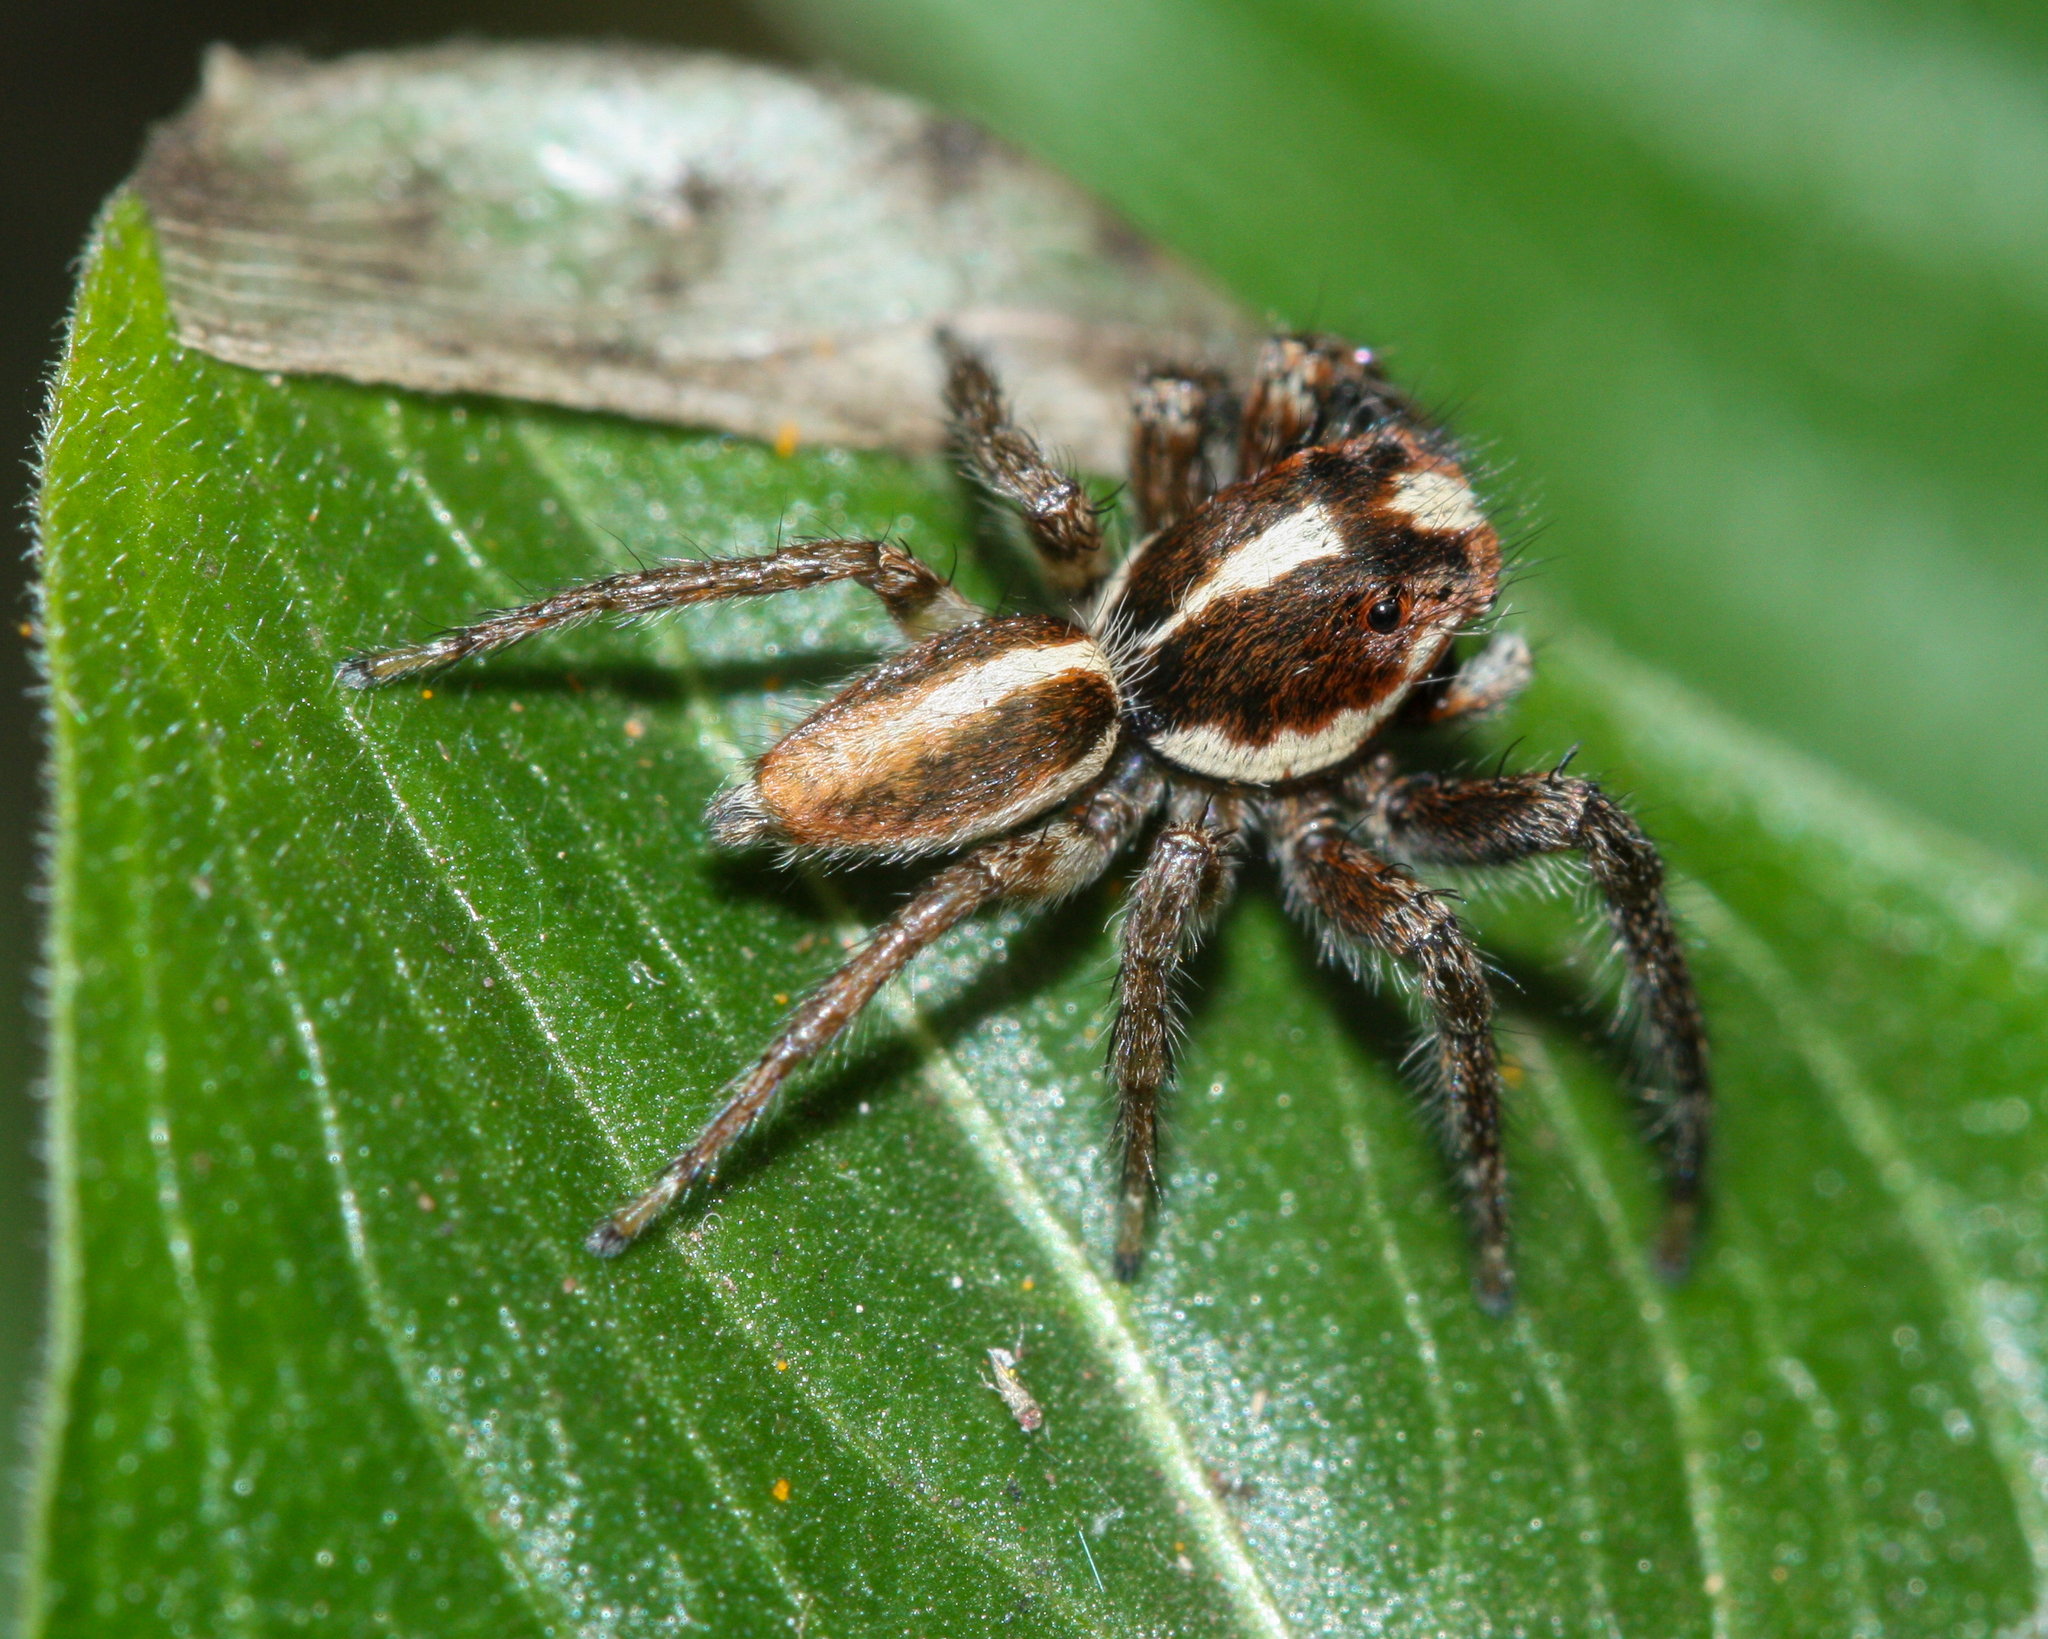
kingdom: Animalia
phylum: Arthropoda
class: Arachnida
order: Araneae
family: Salticidae
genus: Frigga
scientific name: Frigga crocuta
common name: Jumping spiders
